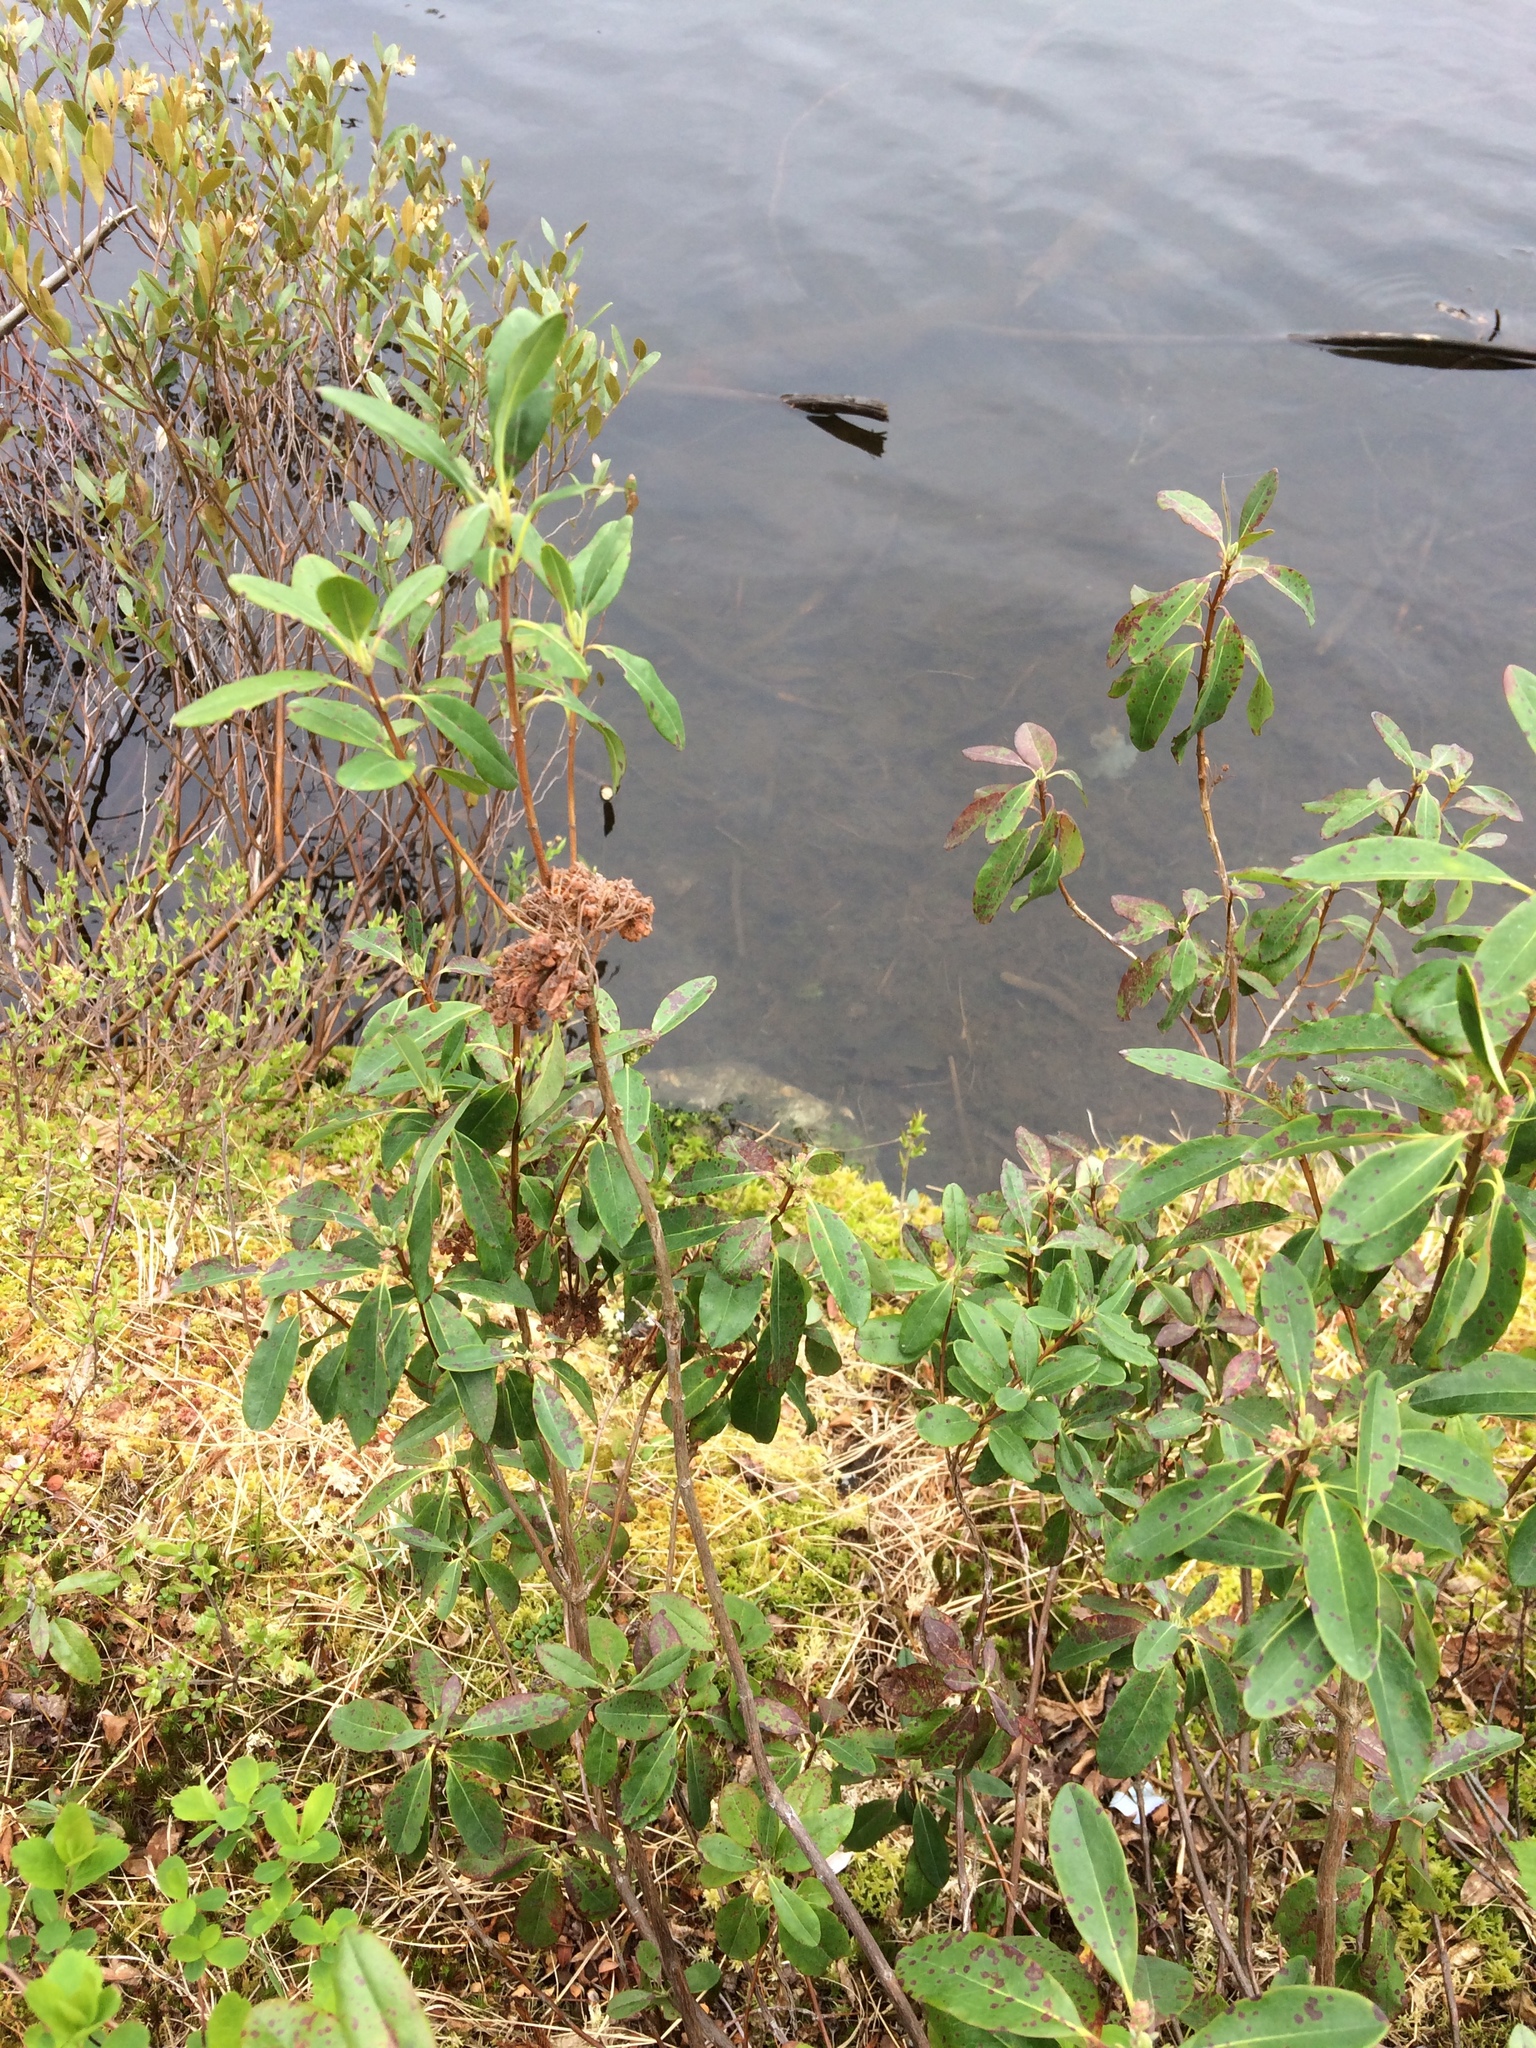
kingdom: Plantae
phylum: Tracheophyta
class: Magnoliopsida
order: Ericales
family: Ericaceae
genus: Kalmia
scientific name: Kalmia angustifolia
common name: Sheep-laurel
